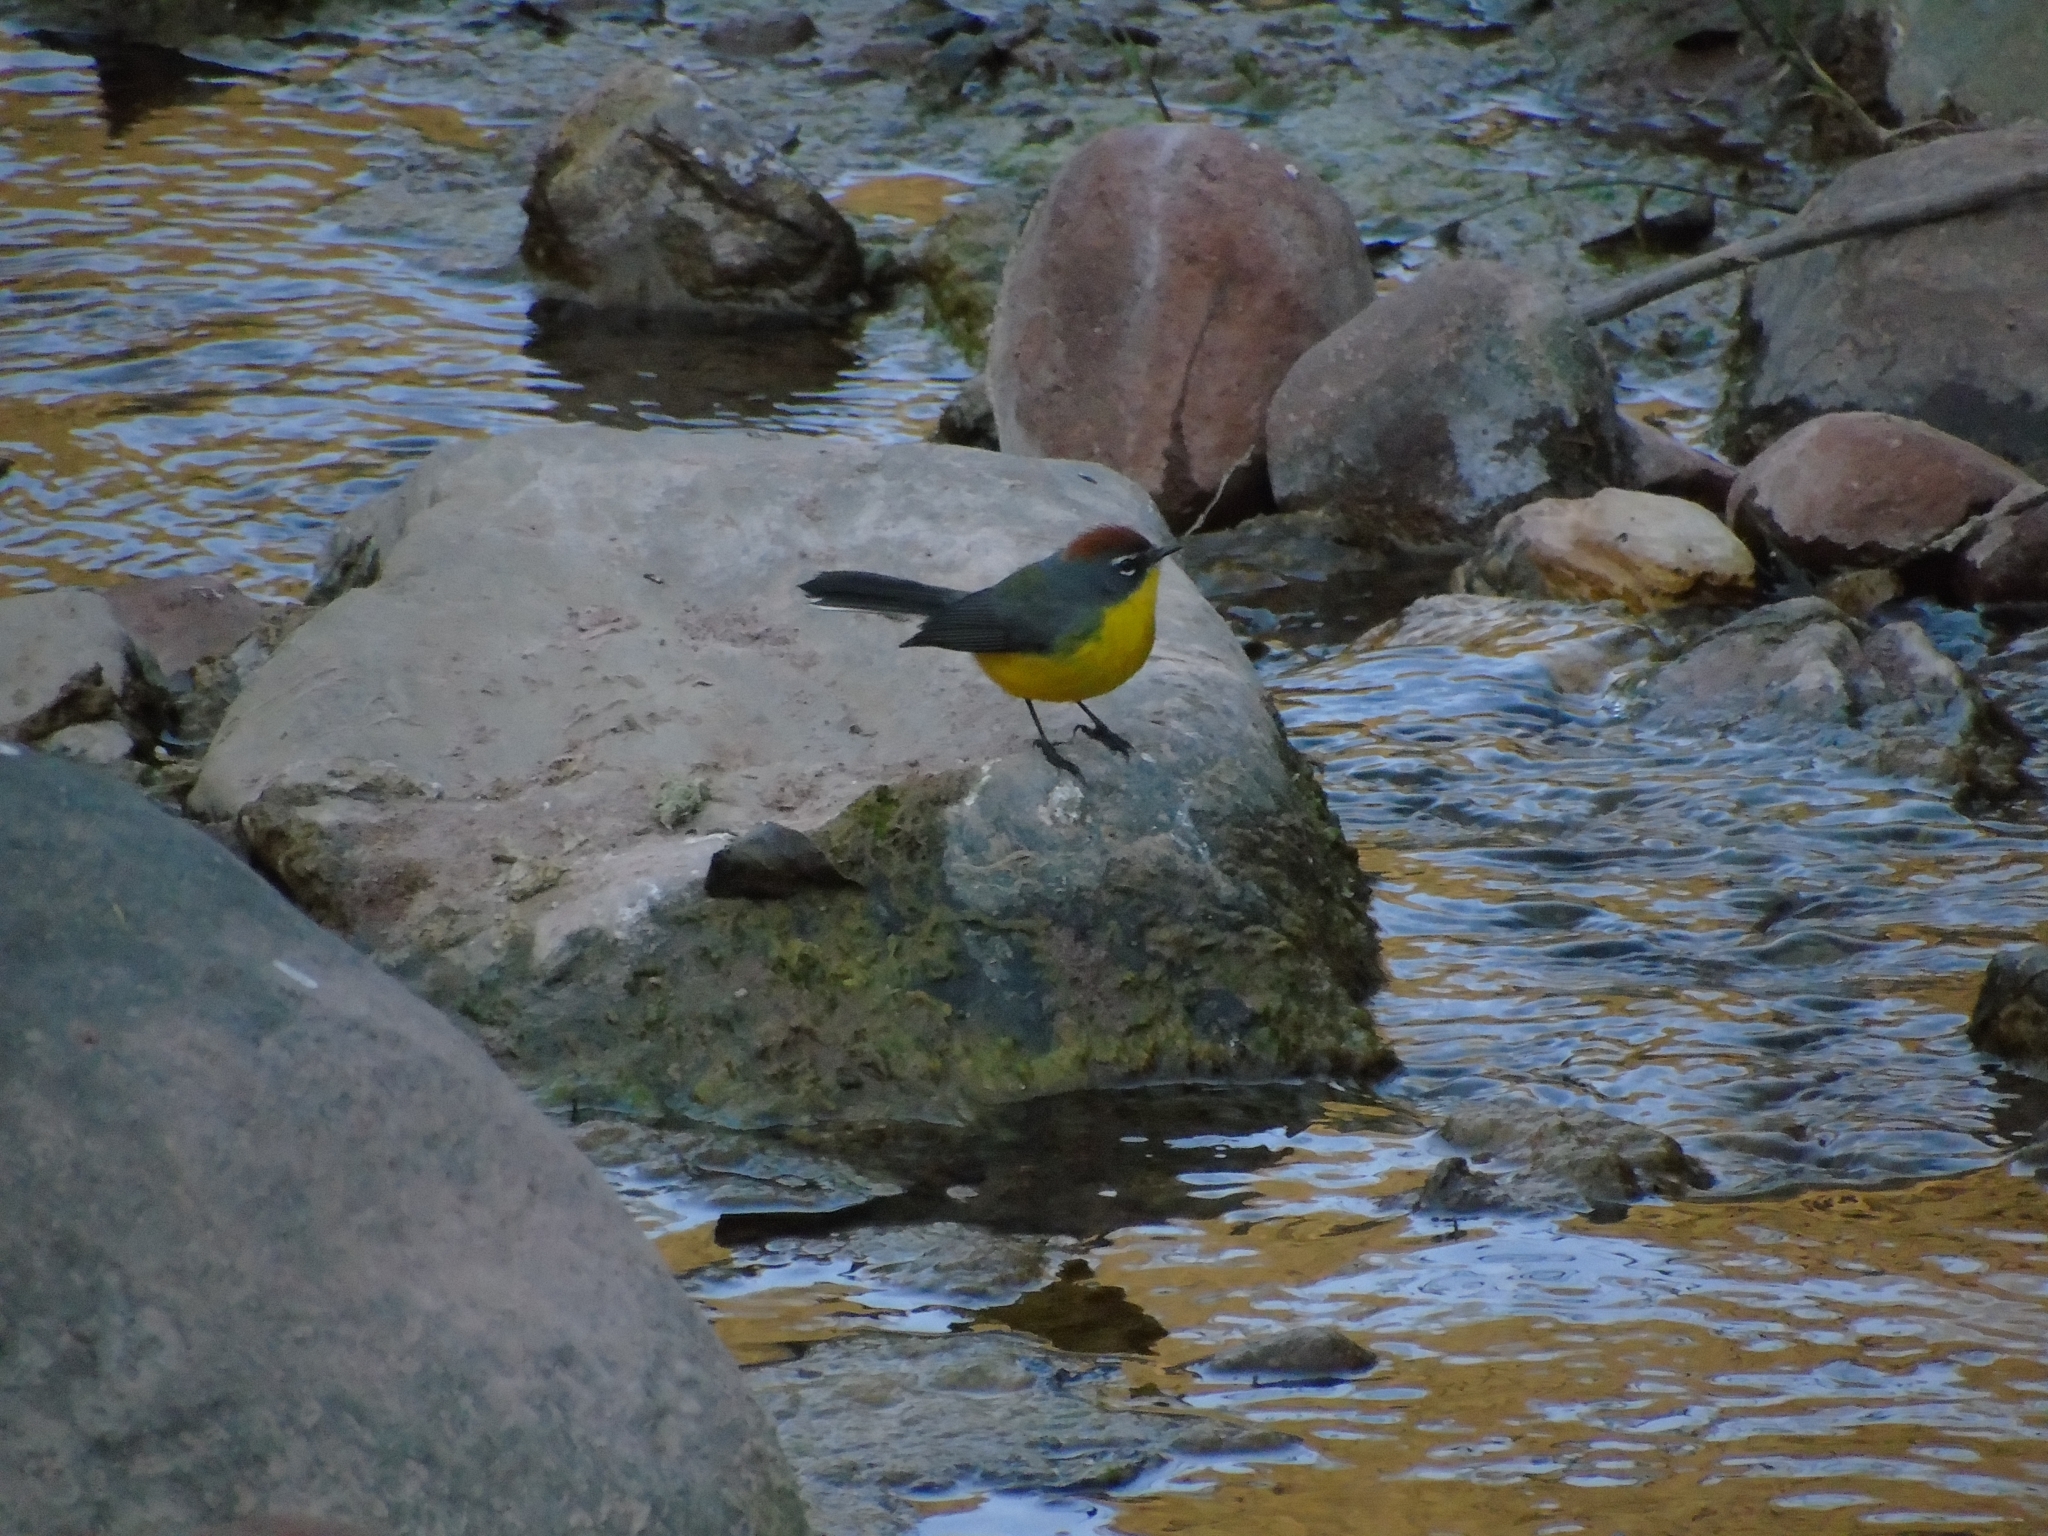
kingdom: Animalia
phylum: Chordata
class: Aves
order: Passeriformes
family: Parulidae
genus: Myioborus
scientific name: Myioborus brunniceps
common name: Brown-capped whitestart
